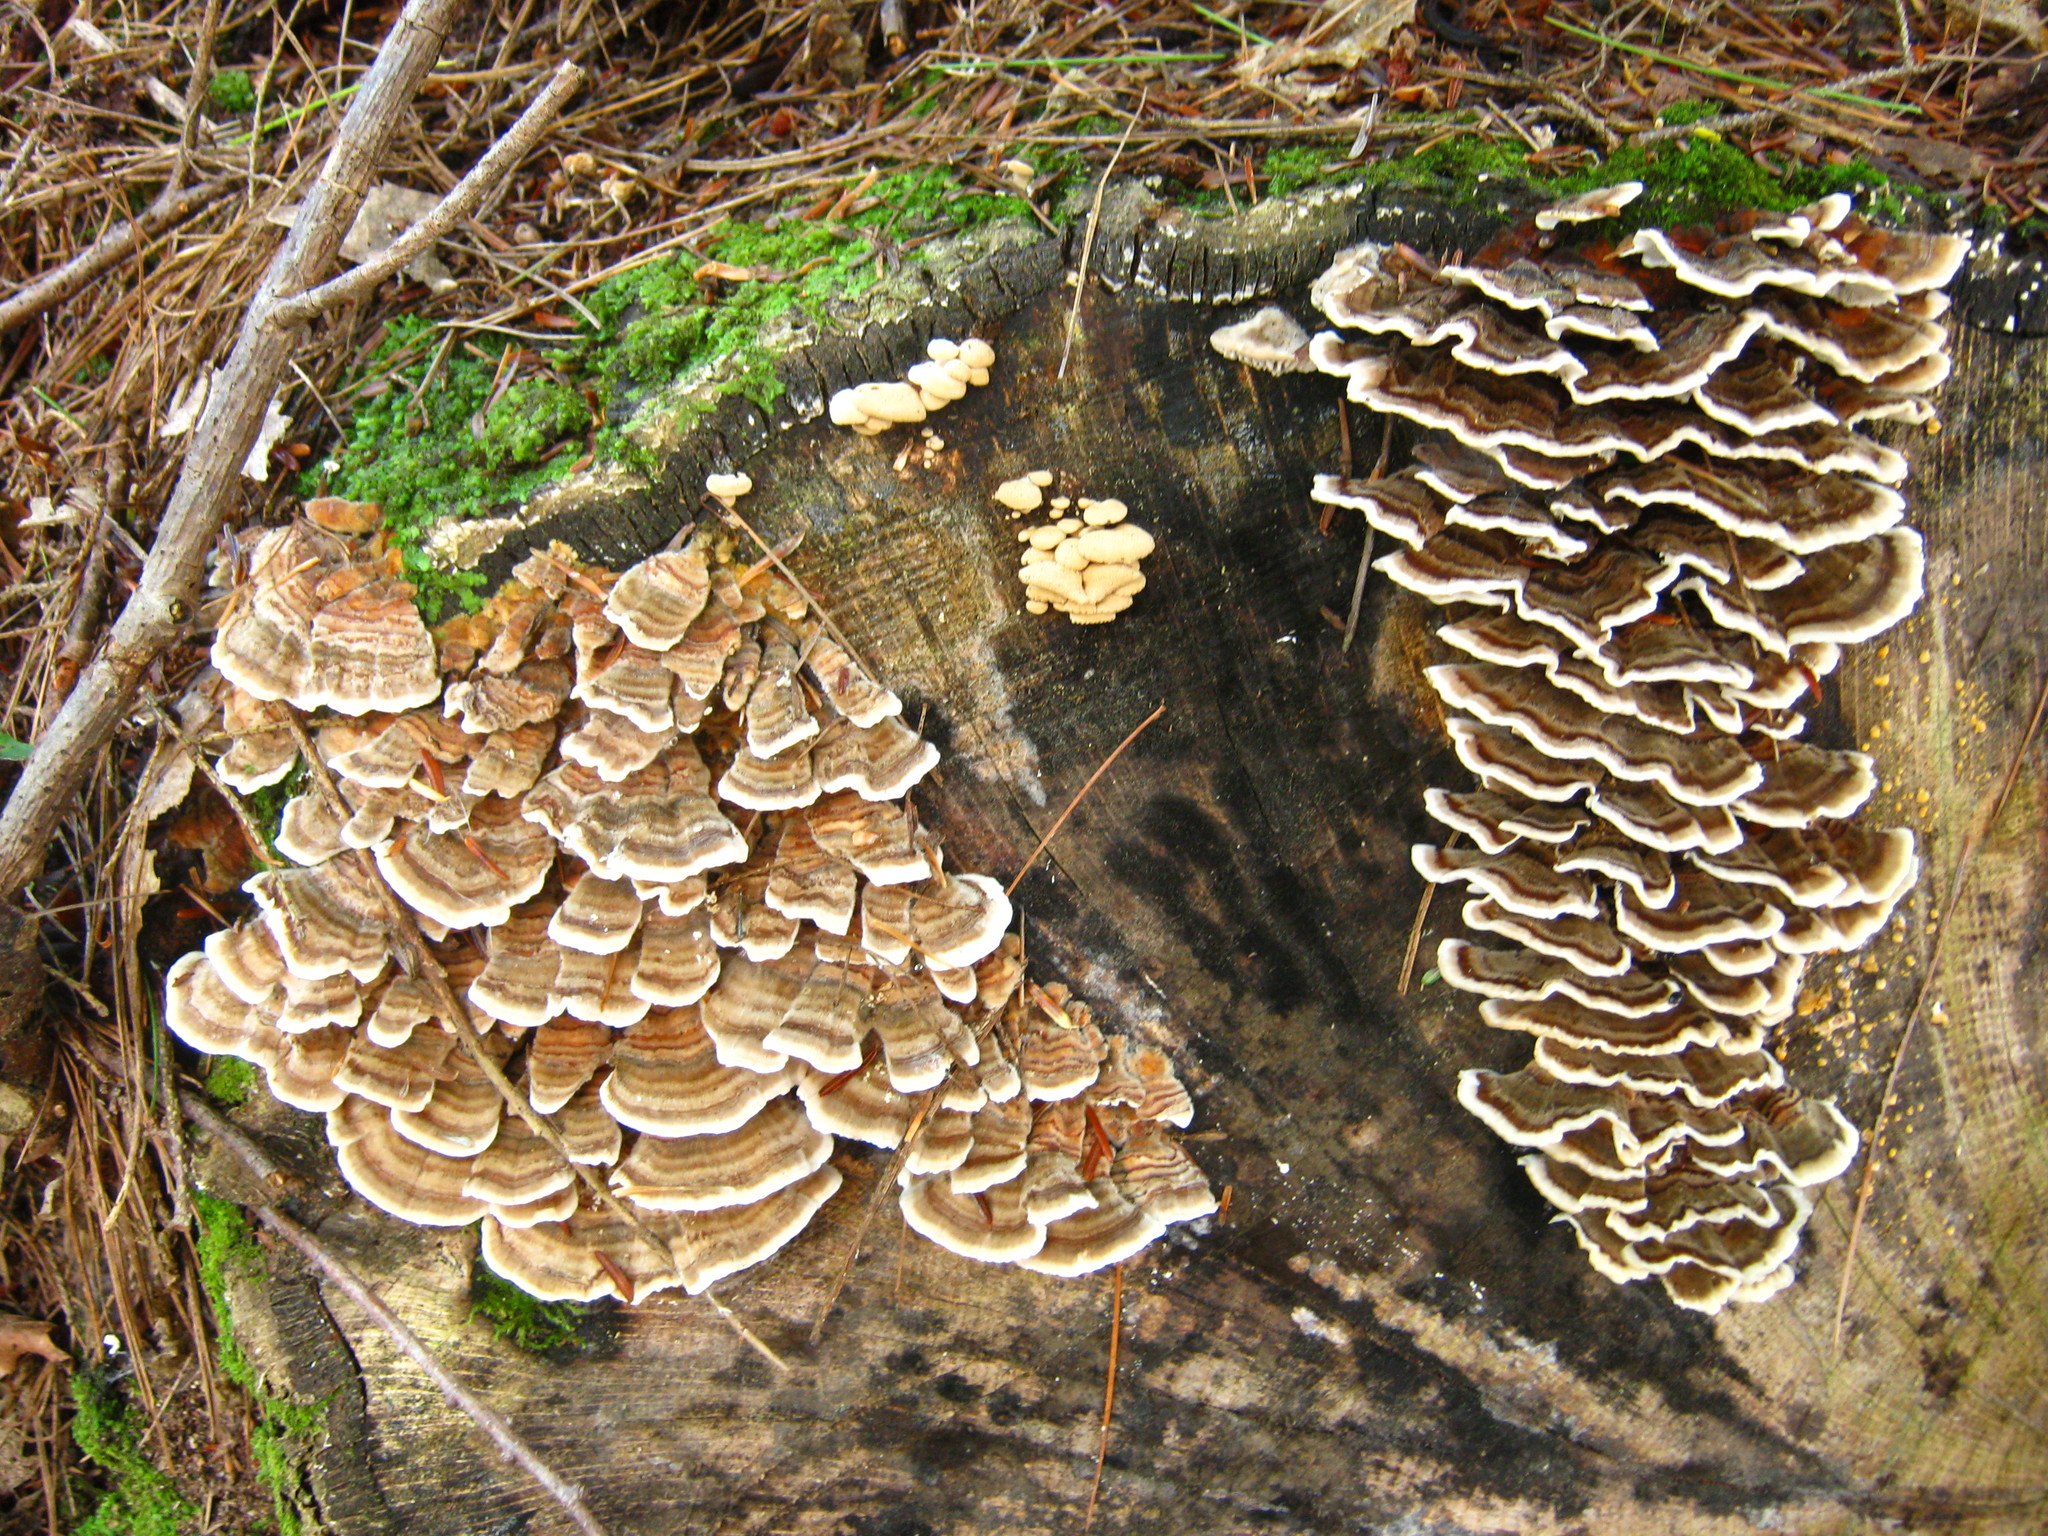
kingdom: Fungi
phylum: Basidiomycota
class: Agaricomycetes
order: Polyporales
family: Polyporaceae
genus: Trametes
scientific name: Trametes versicolor
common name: Turkeytail
